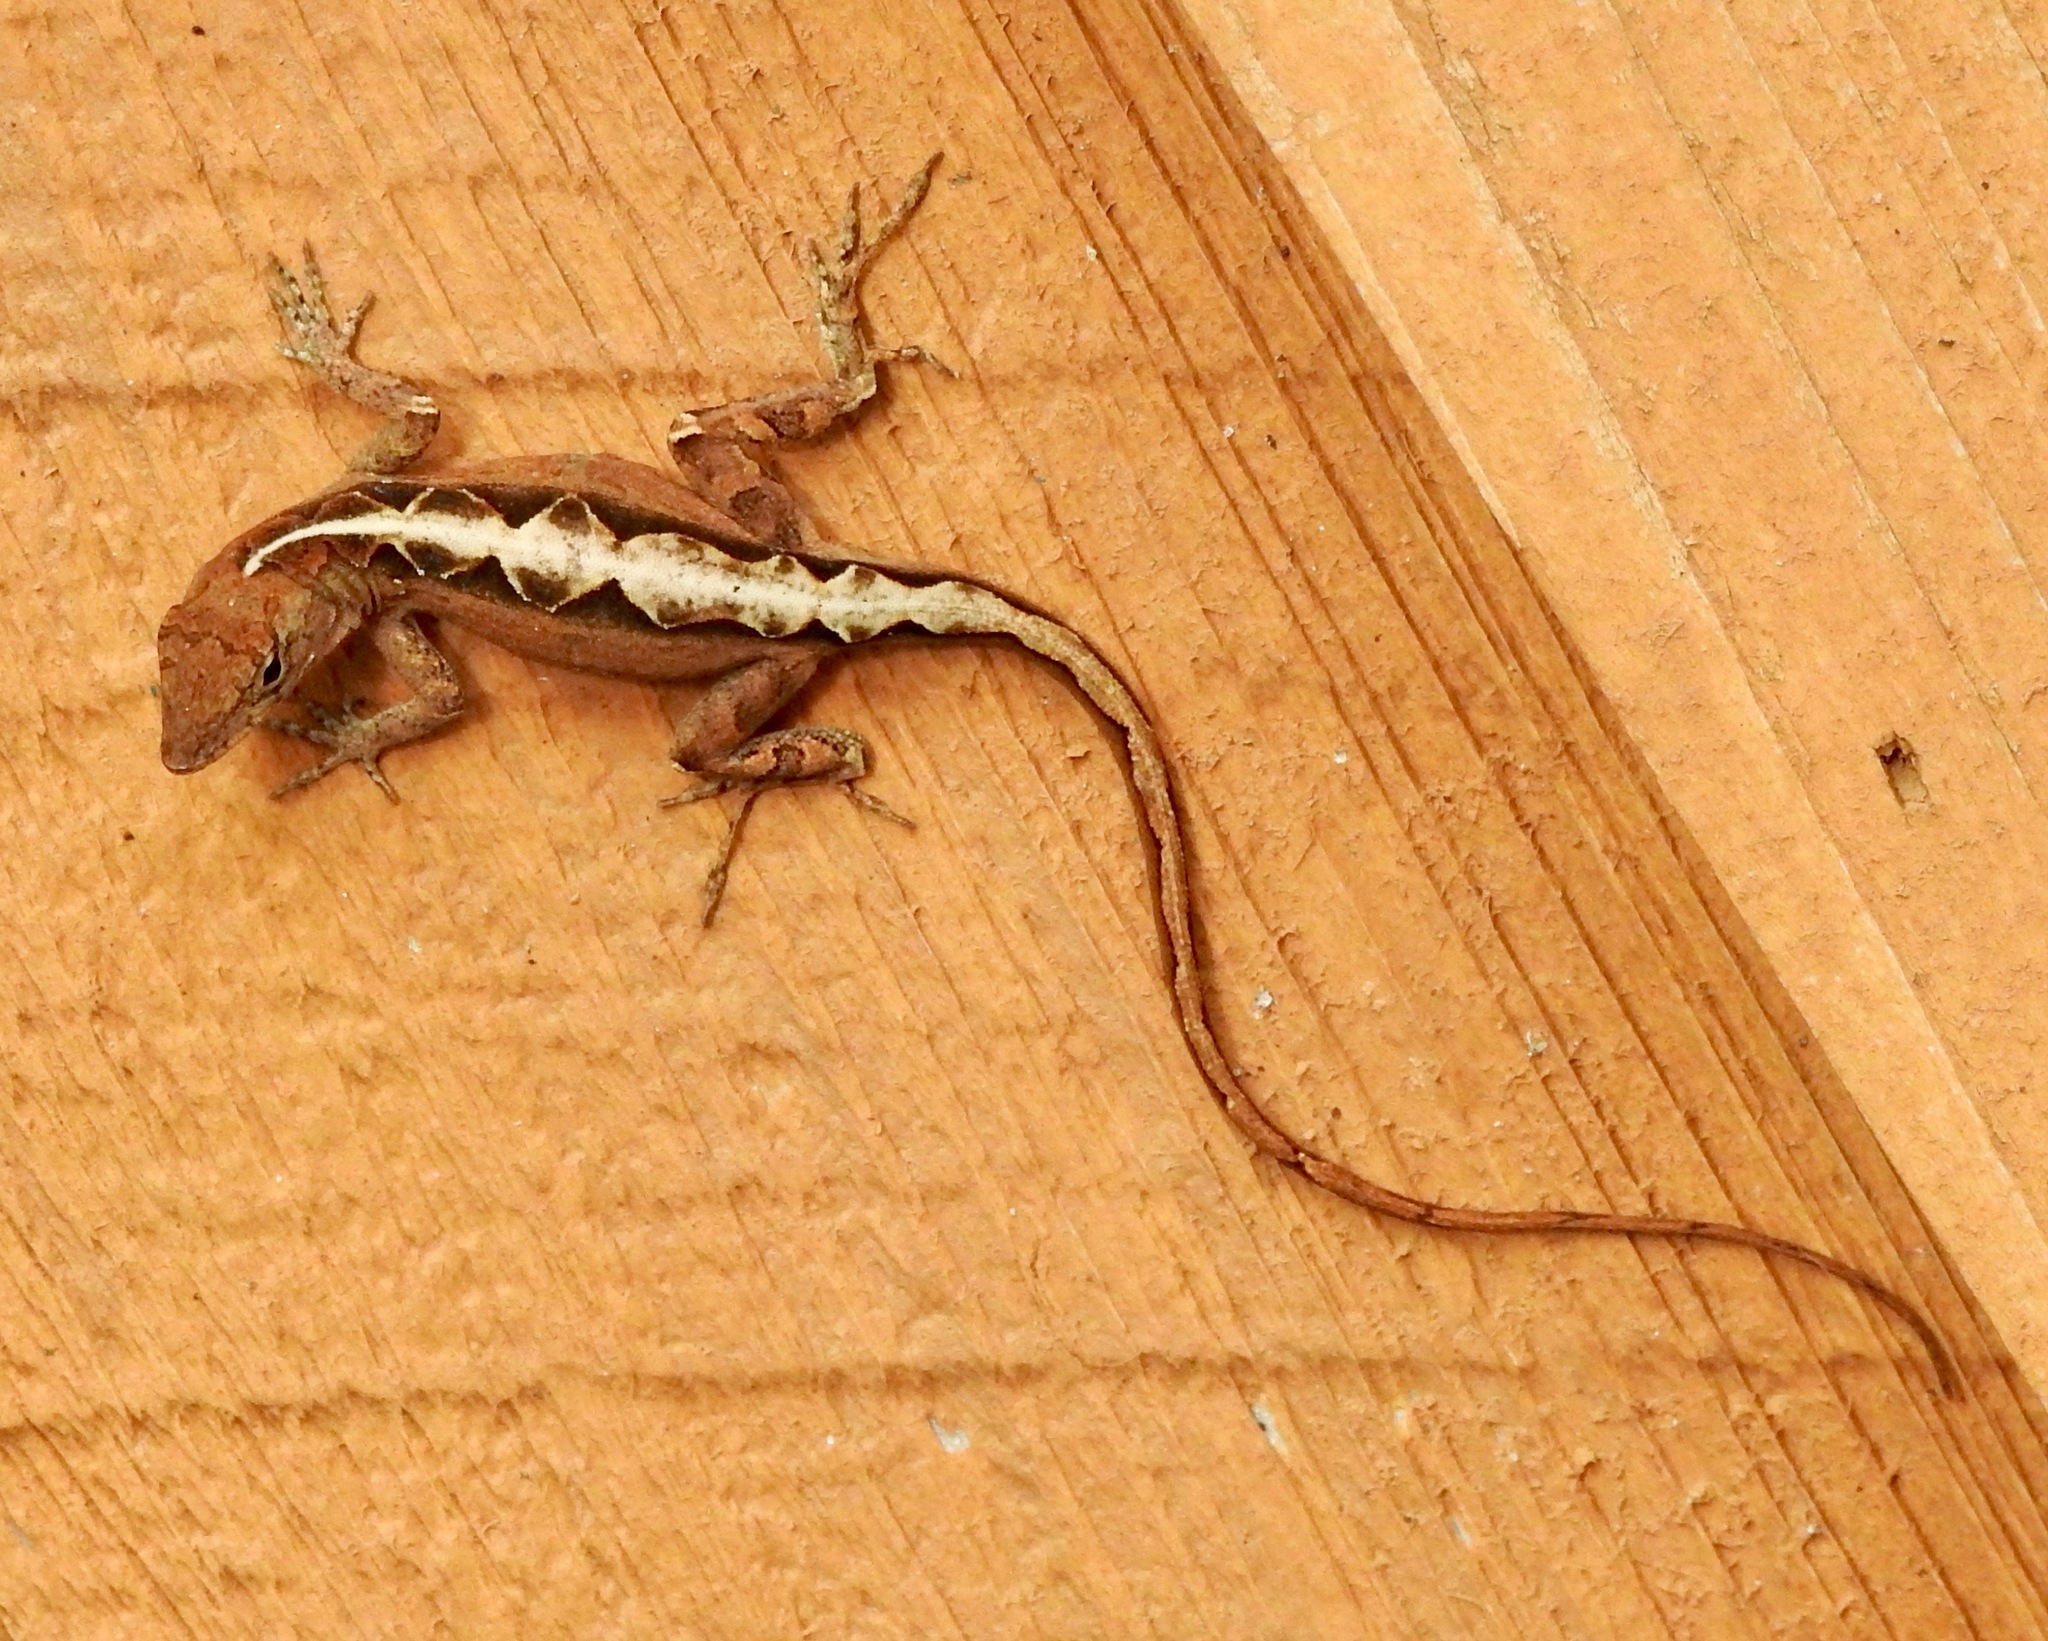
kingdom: Animalia
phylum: Chordata
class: Squamata
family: Dactyloidae
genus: Anolis
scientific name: Anolis sagrei
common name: Brown anole
